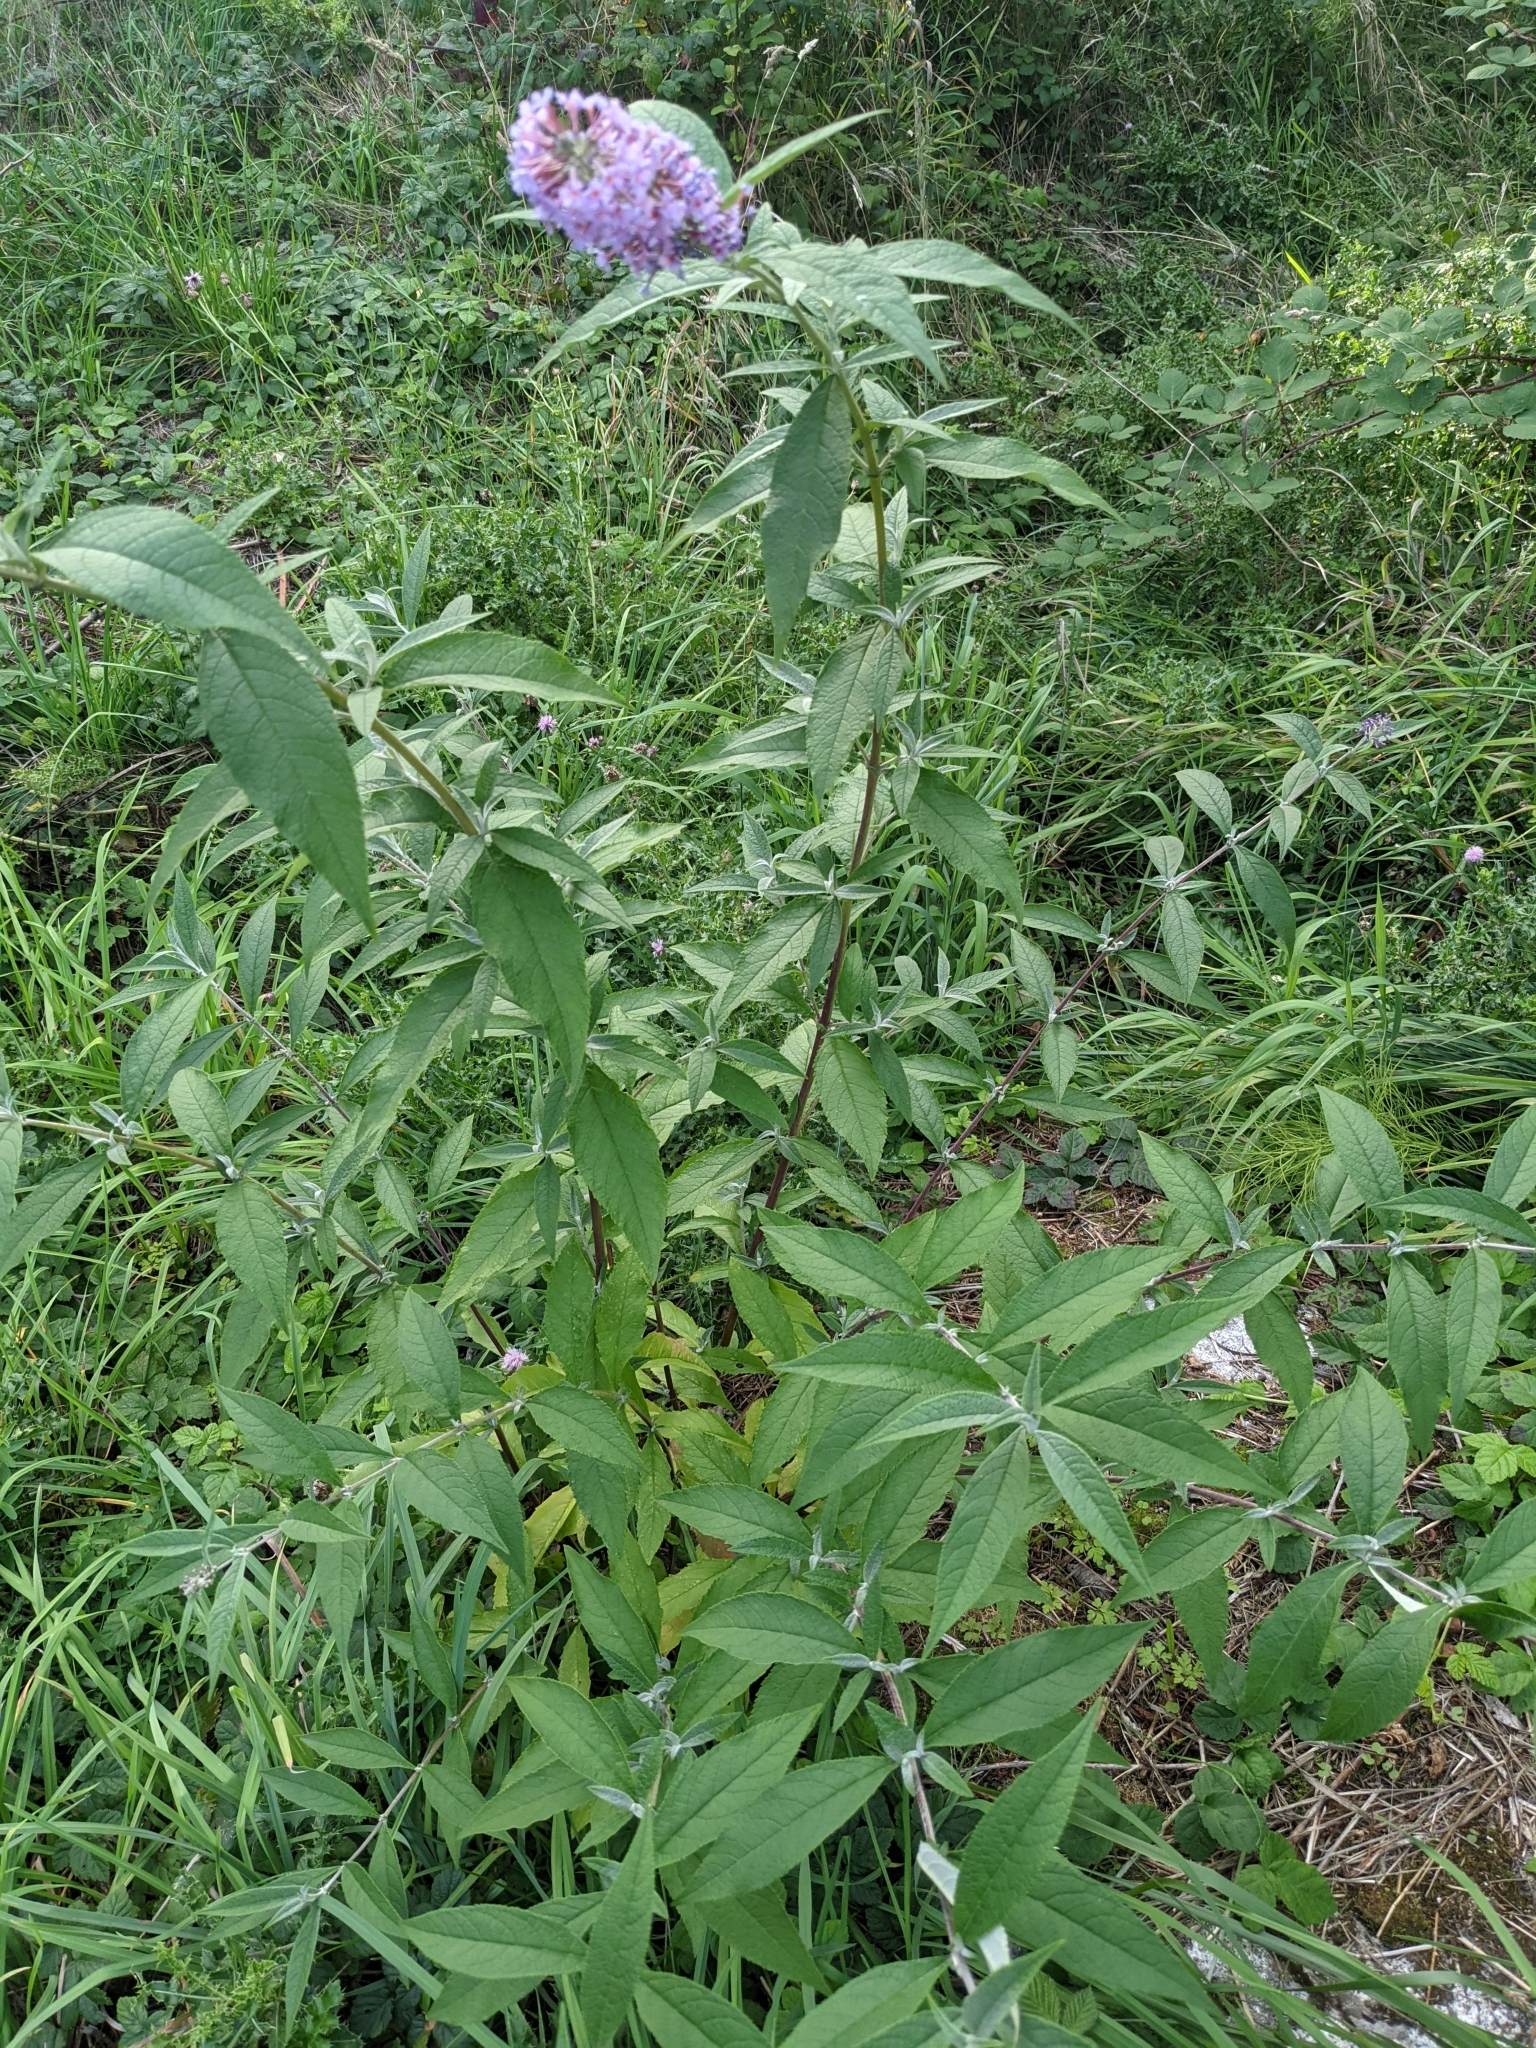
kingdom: Plantae
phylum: Tracheophyta
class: Magnoliopsida
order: Lamiales
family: Scrophulariaceae
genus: Buddleja
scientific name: Buddleja davidii
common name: Butterfly-bush
